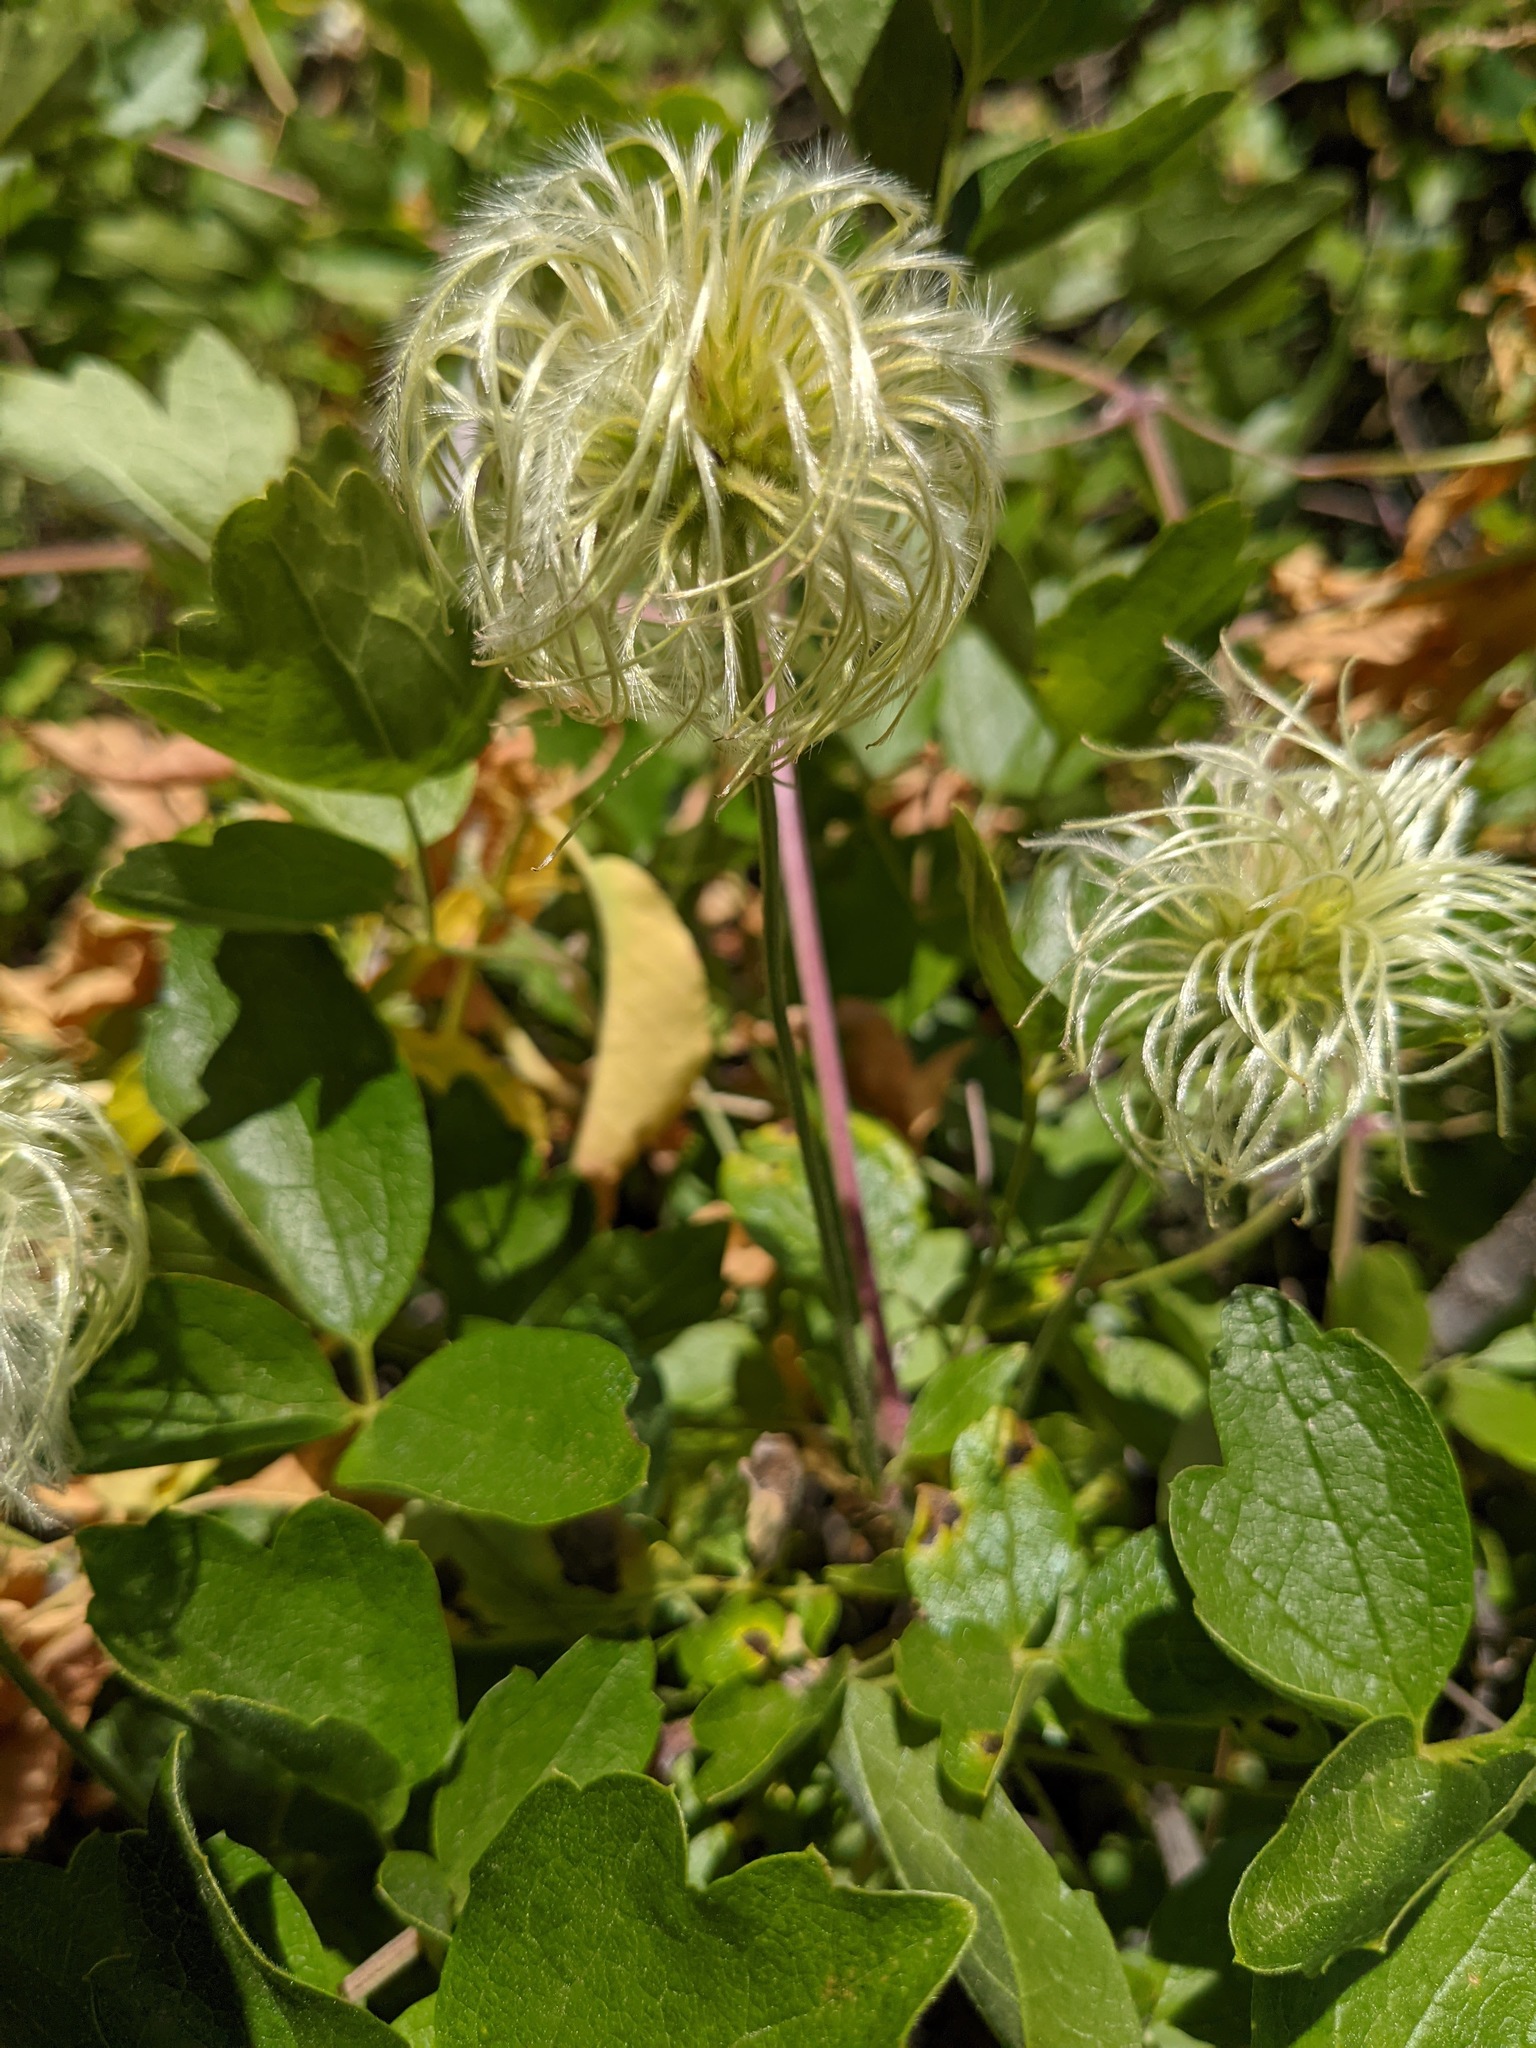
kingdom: Plantae
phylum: Tracheophyta
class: Magnoliopsida
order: Ranunculales
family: Ranunculaceae
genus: Clematis
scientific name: Clematis lasiantha
